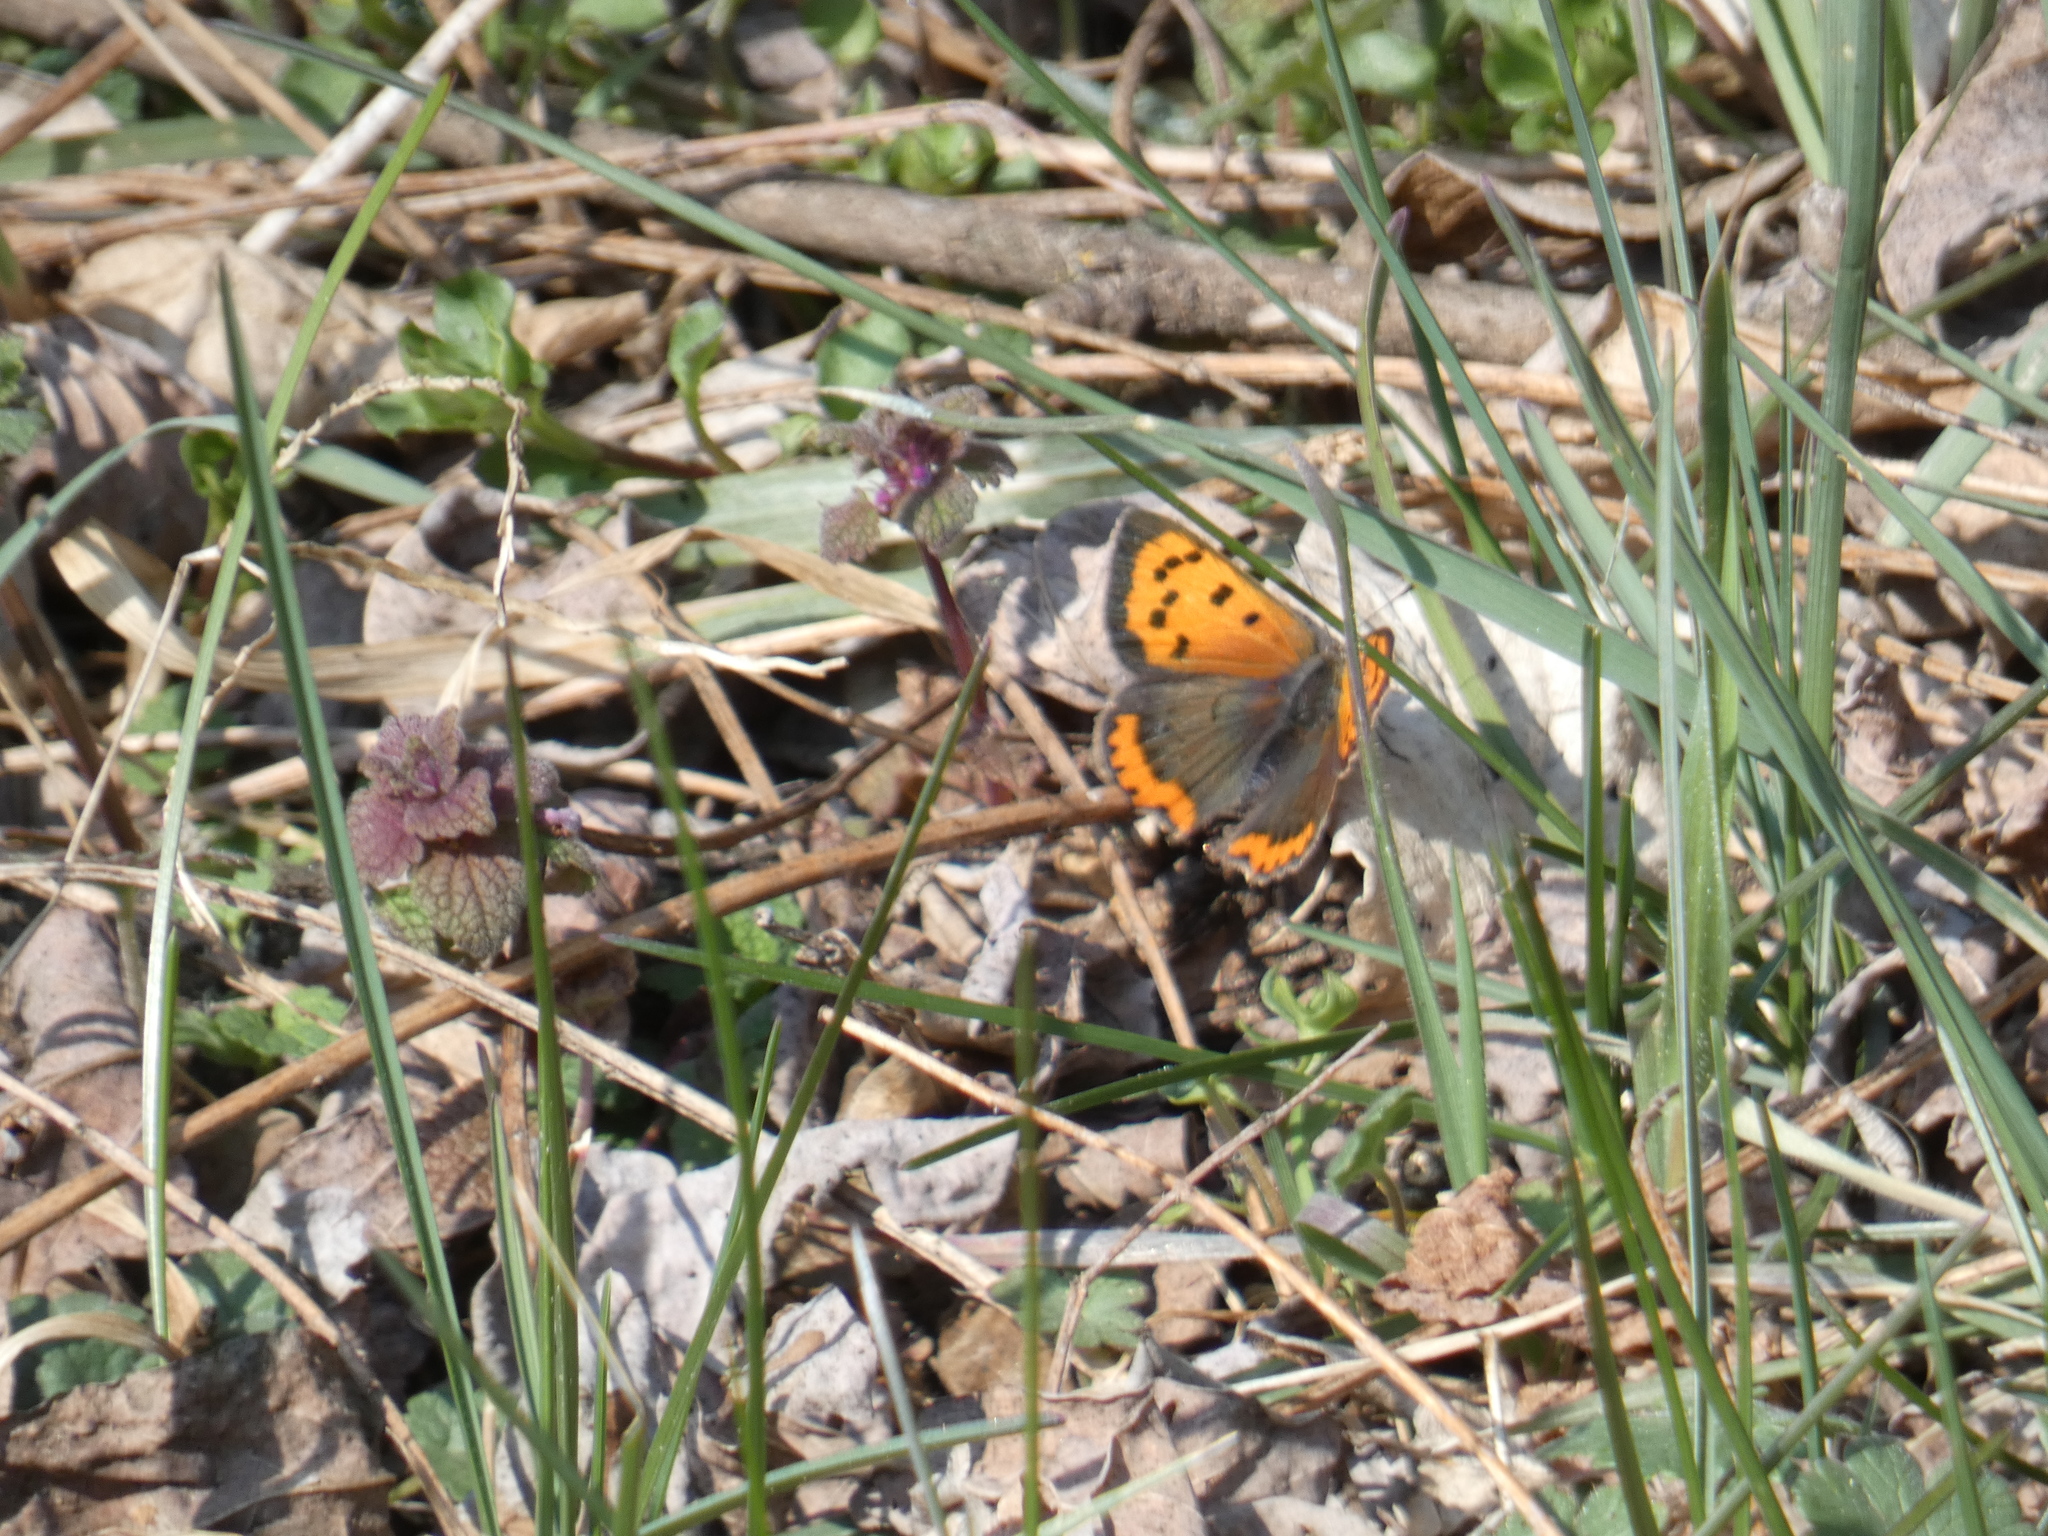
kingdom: Animalia
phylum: Arthropoda
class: Insecta
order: Lepidoptera
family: Lycaenidae
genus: Lycaena
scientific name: Lycaena phlaeas
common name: Small copper
